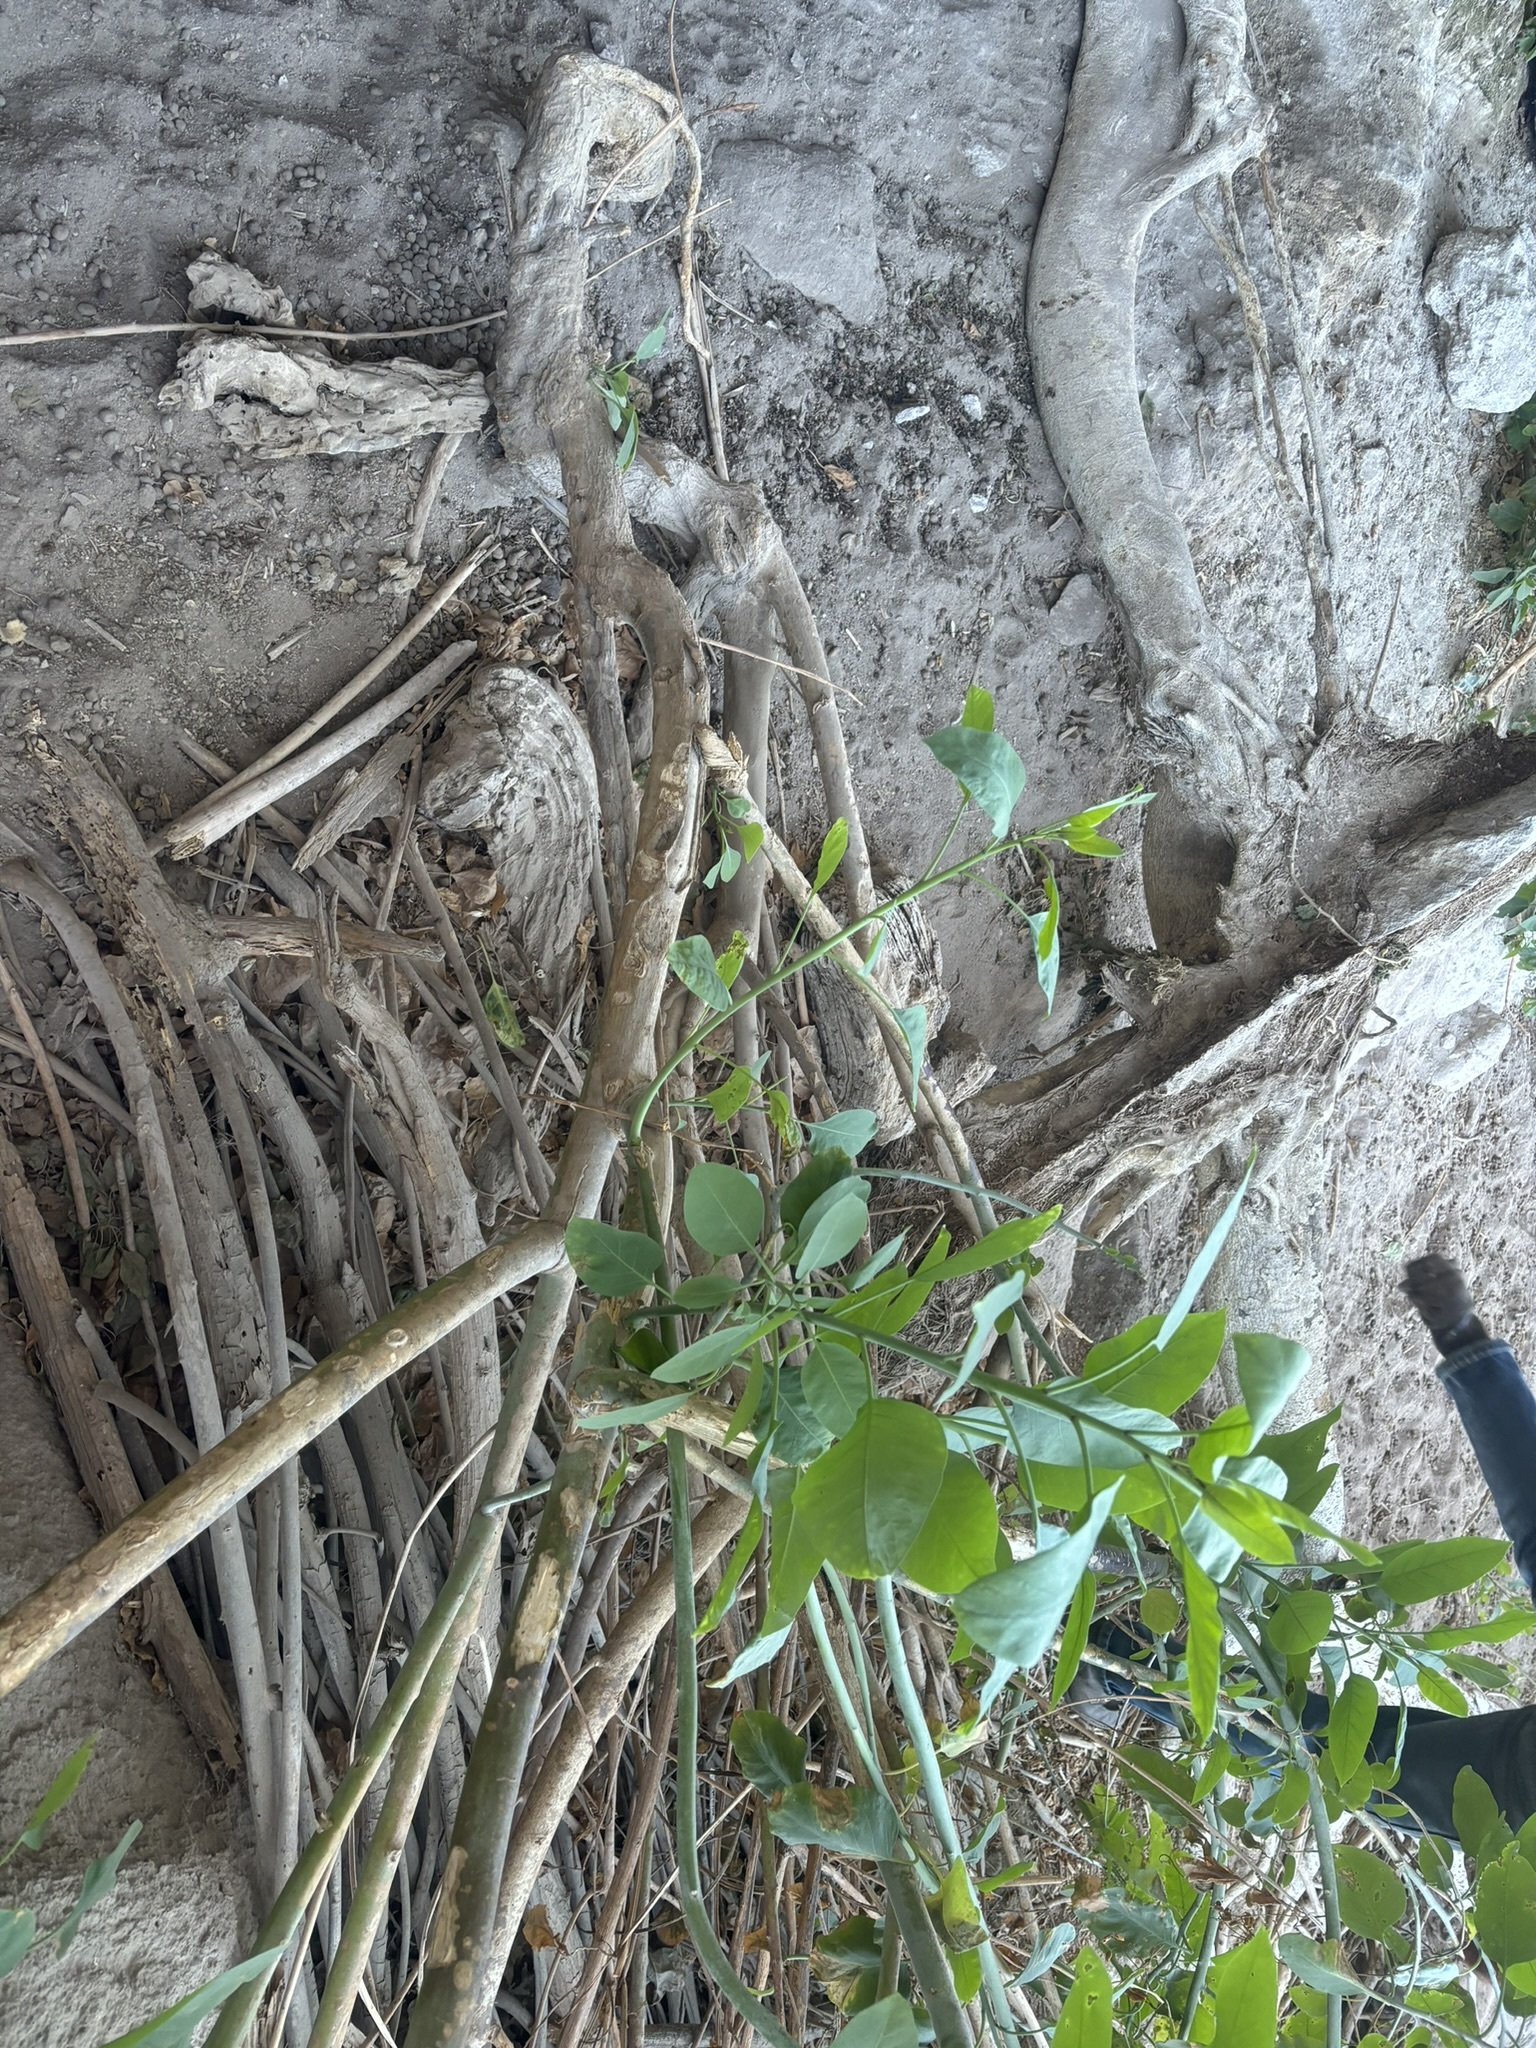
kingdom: Plantae
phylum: Tracheophyta
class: Magnoliopsida
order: Solanales
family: Solanaceae
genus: Nicotiana
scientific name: Nicotiana glauca
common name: Tree tobacco
